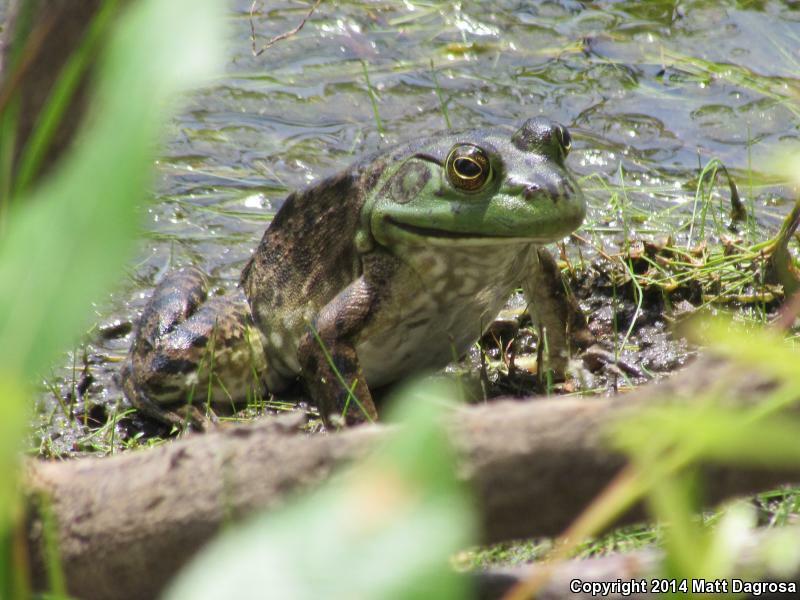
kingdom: Animalia
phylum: Chordata
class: Amphibia
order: Anura
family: Ranidae
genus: Lithobates
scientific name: Lithobates catesbeianus
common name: American bullfrog
